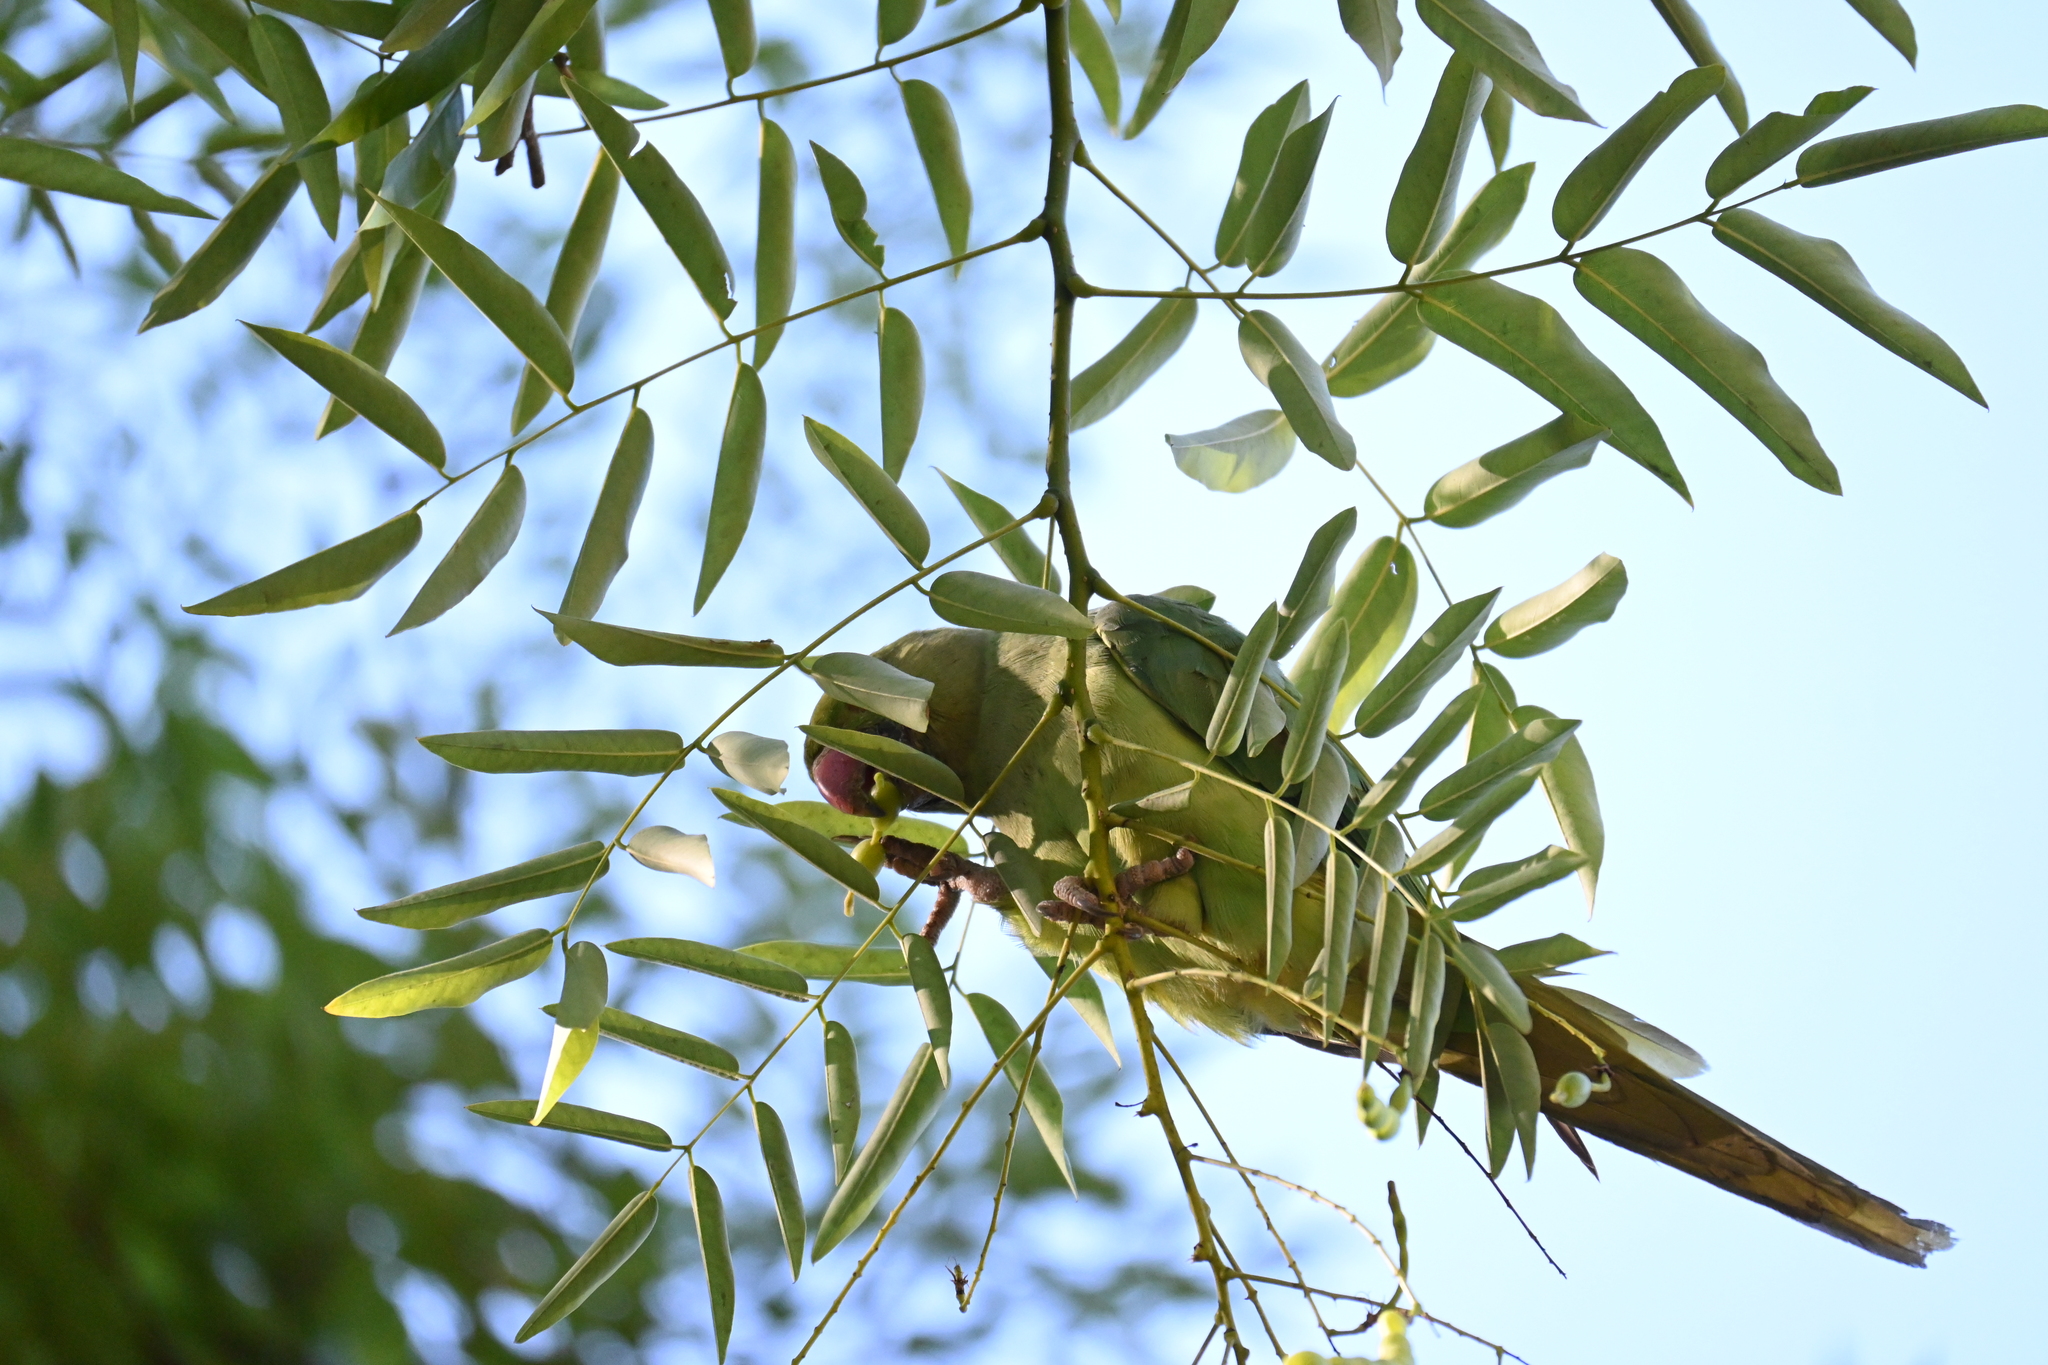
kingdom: Animalia
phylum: Chordata
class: Aves
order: Psittaciformes
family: Psittacidae
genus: Psittacula
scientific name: Psittacula krameri
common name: Rose-ringed parakeet
